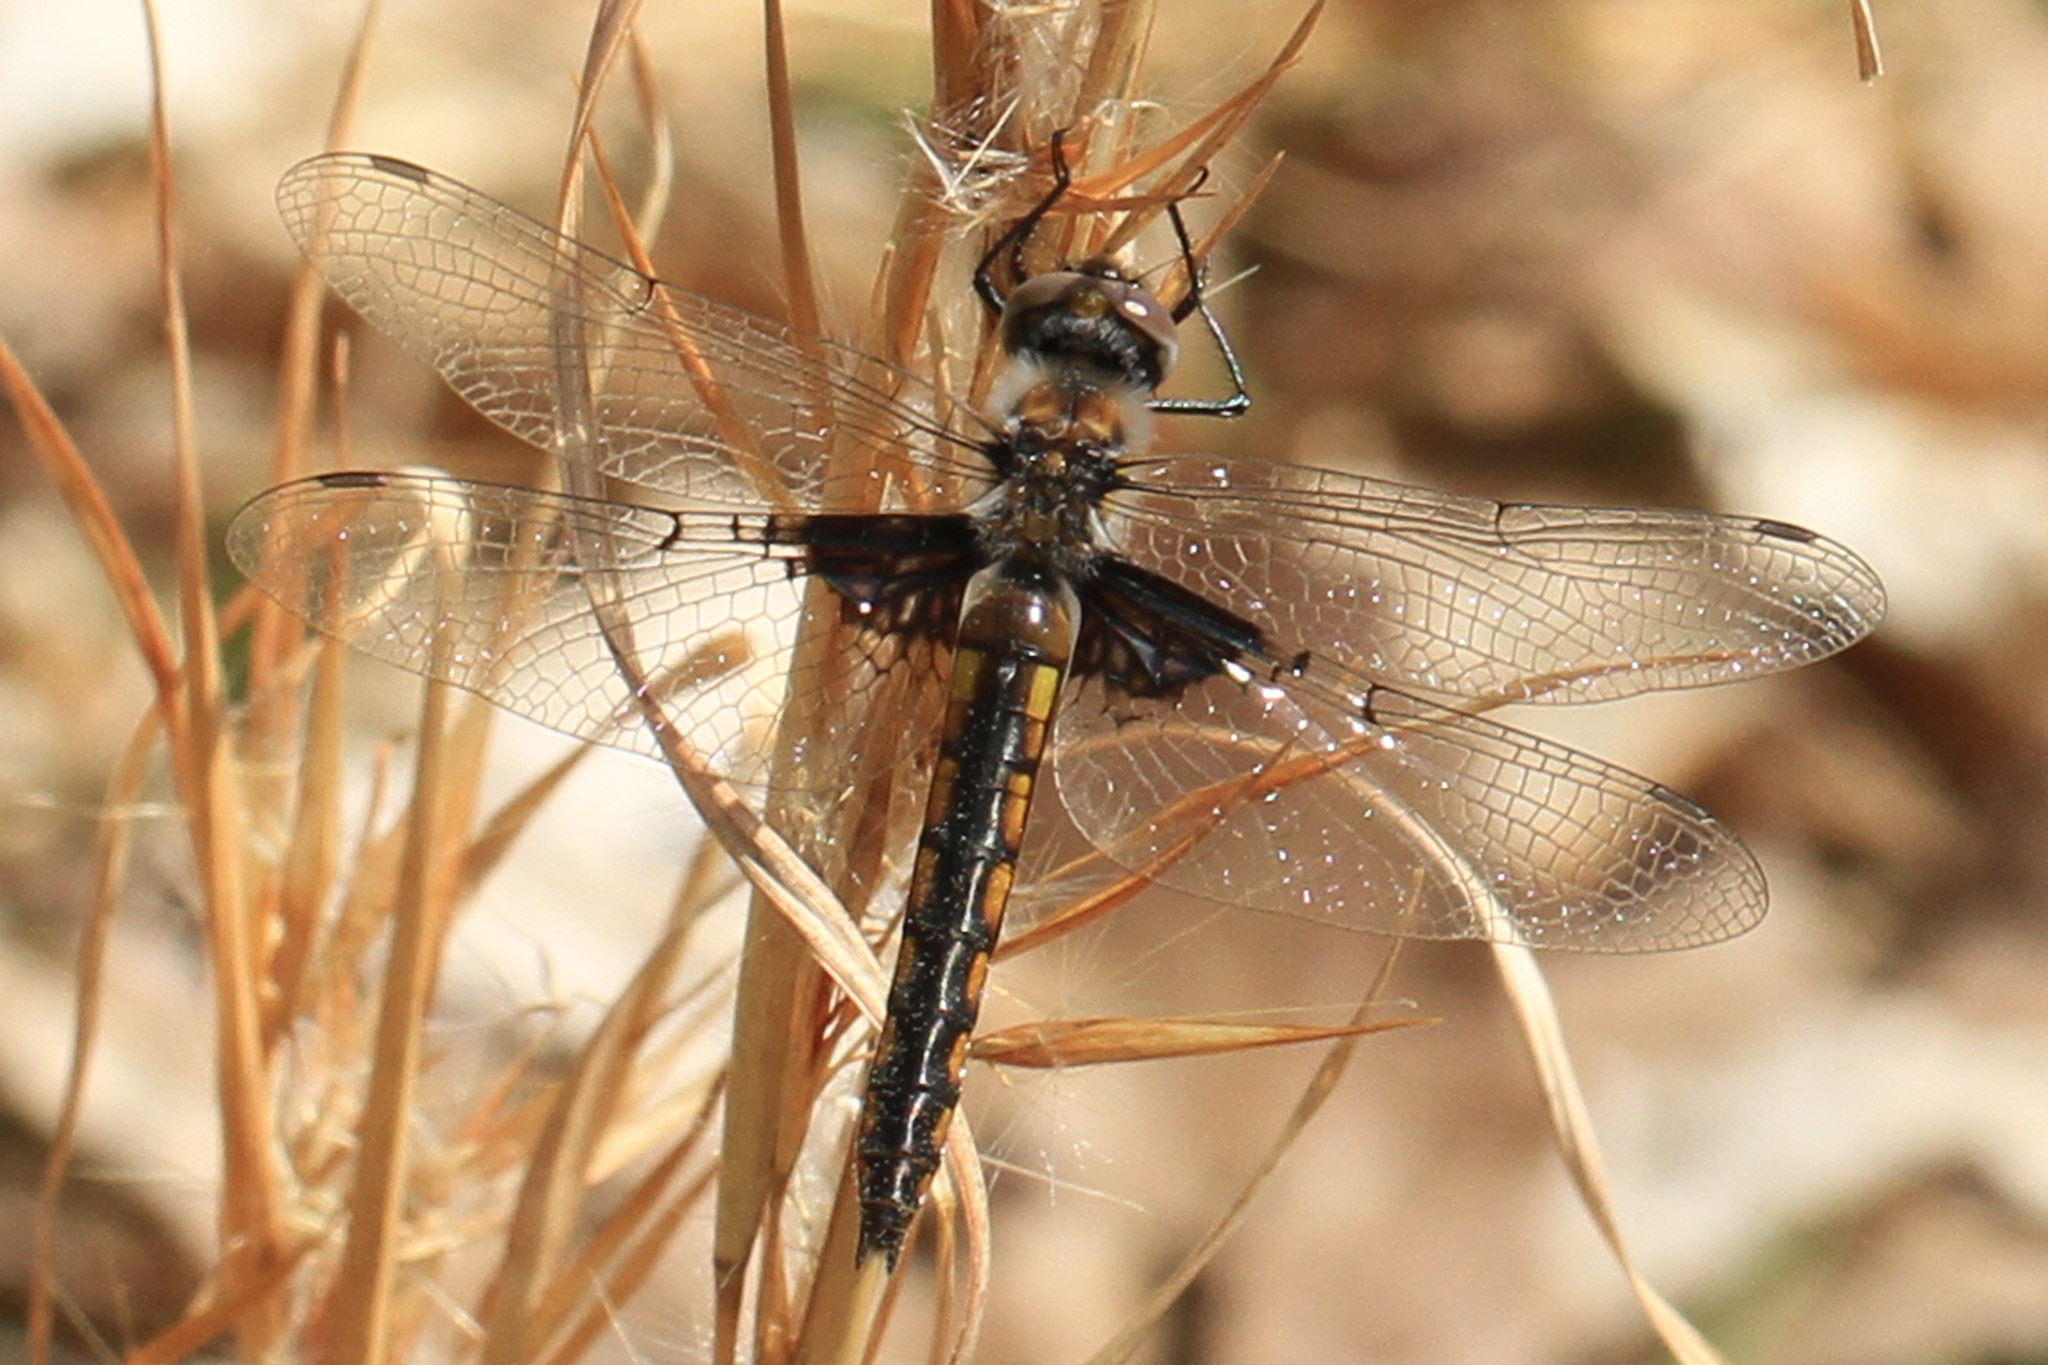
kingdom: Animalia
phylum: Arthropoda
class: Insecta
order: Odonata
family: Corduliidae
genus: Epitheca
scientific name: Epitheca cynosura
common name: Common baskettail
